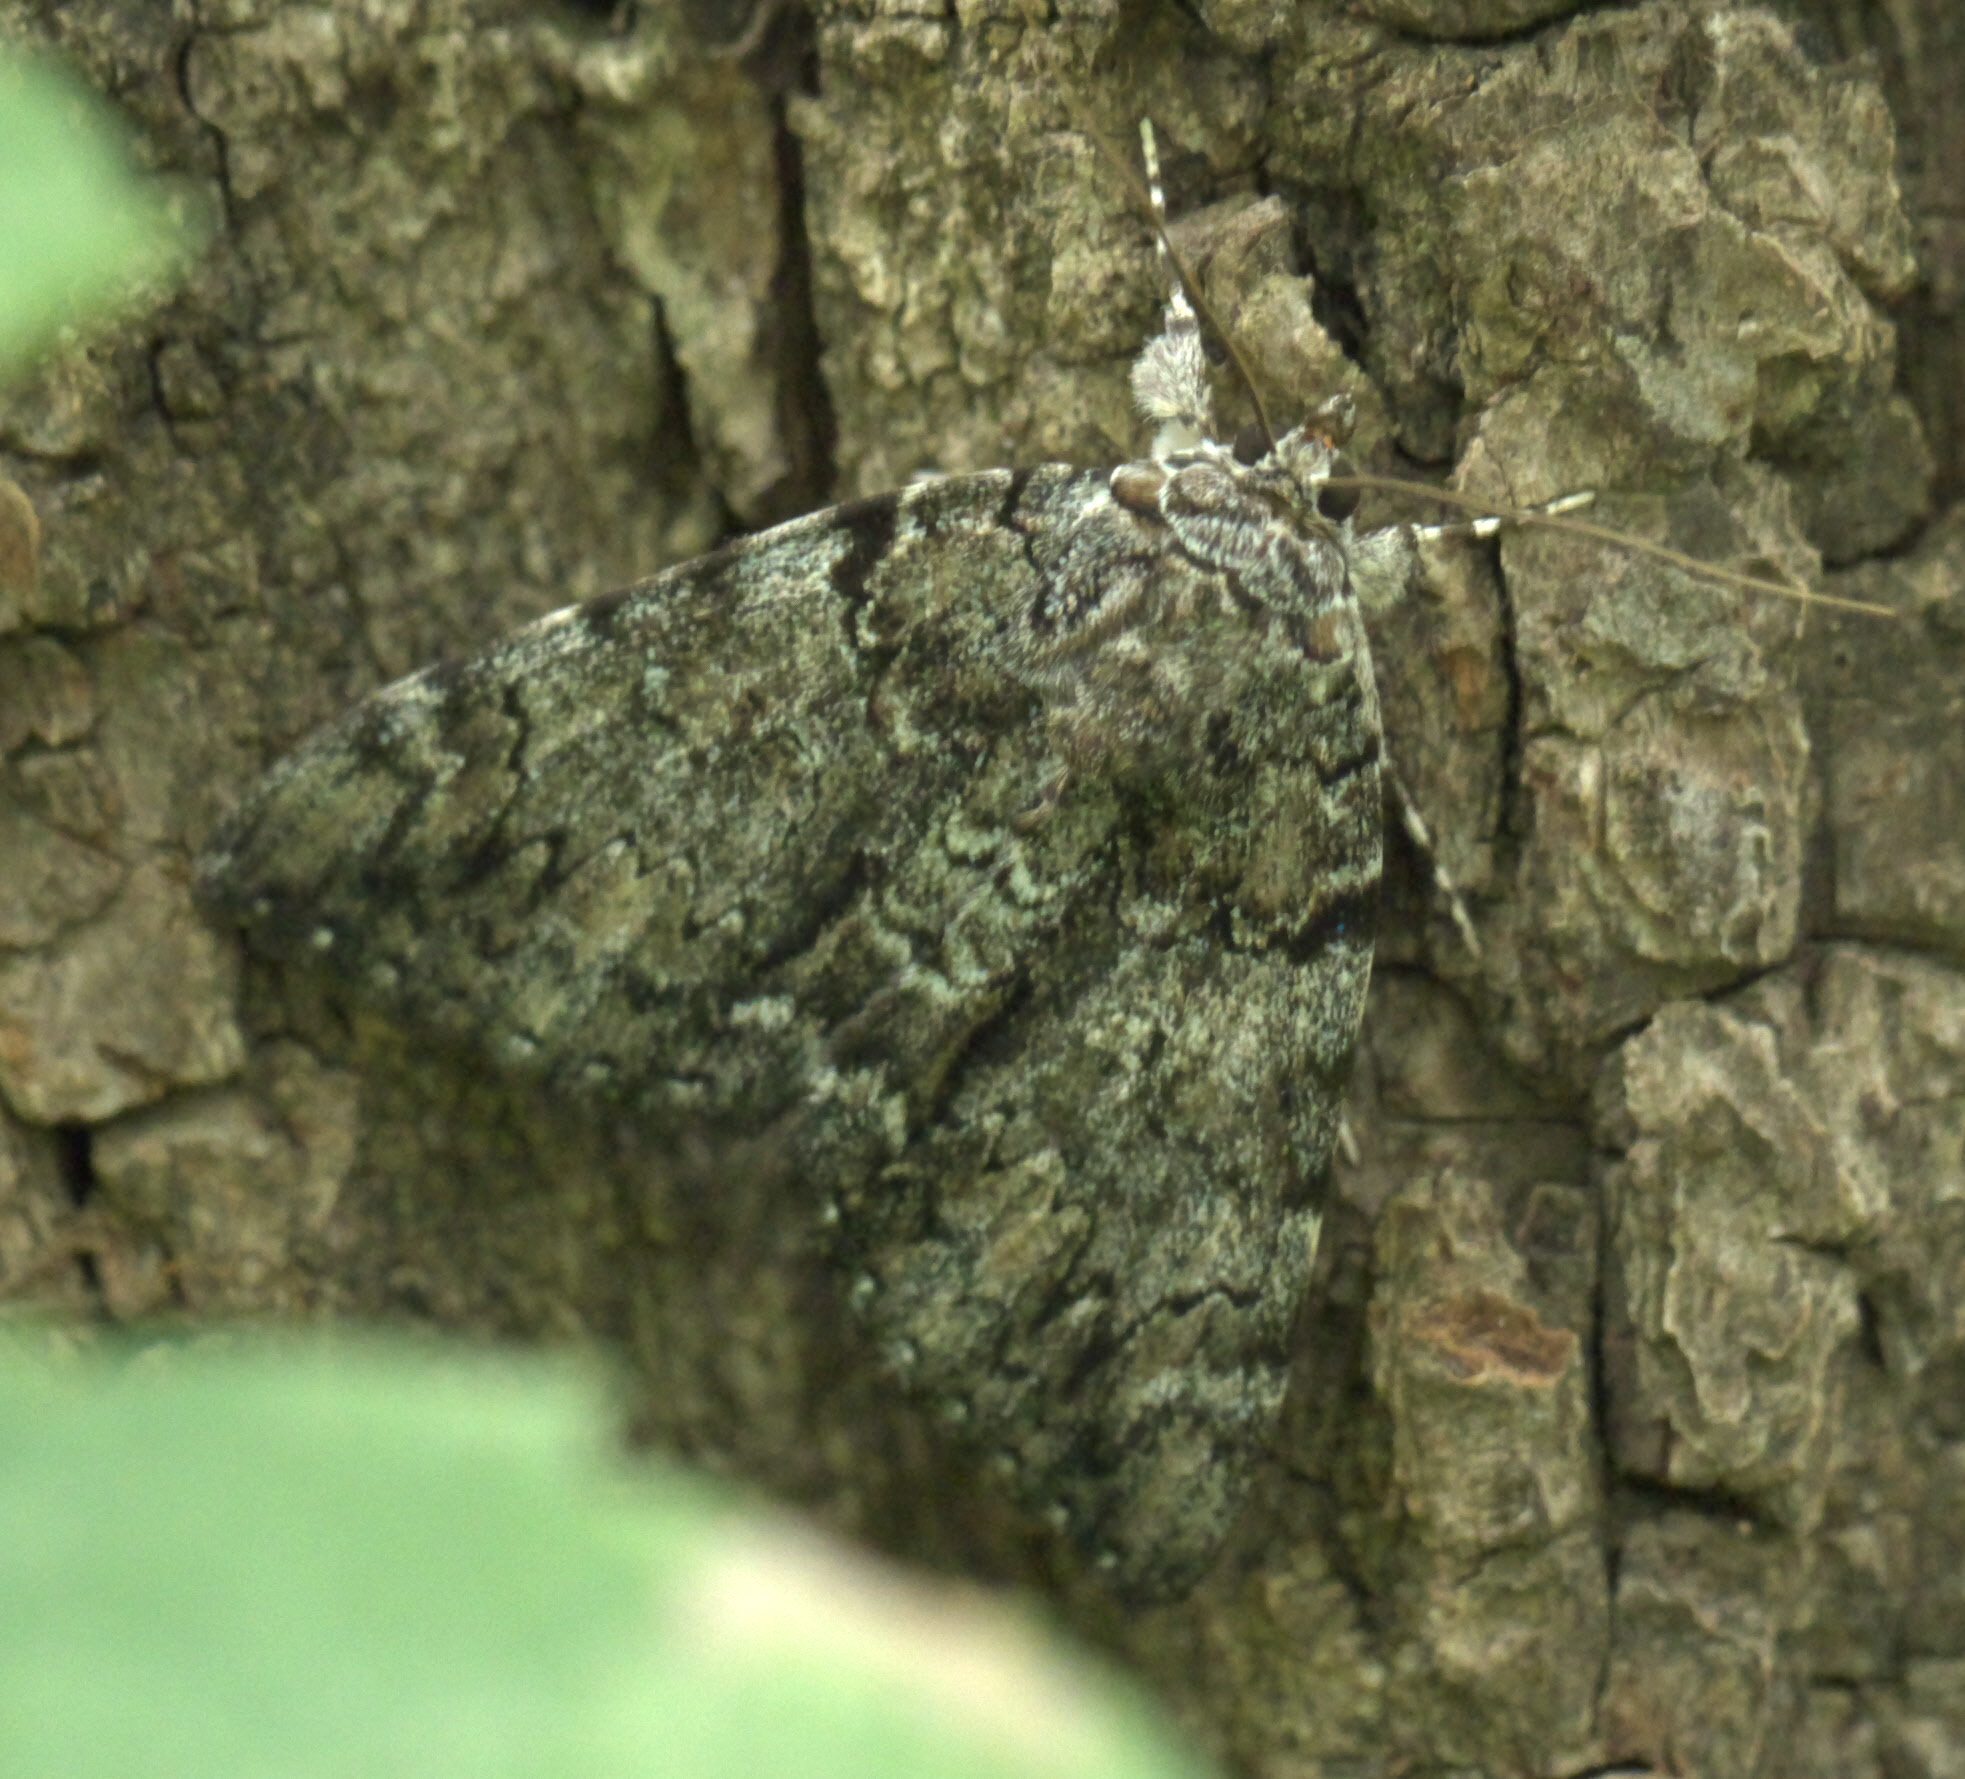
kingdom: Animalia
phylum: Arthropoda
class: Insecta
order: Lepidoptera
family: Erebidae
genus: Catocala
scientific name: Catocala lacrymosa
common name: Tearful underwing
